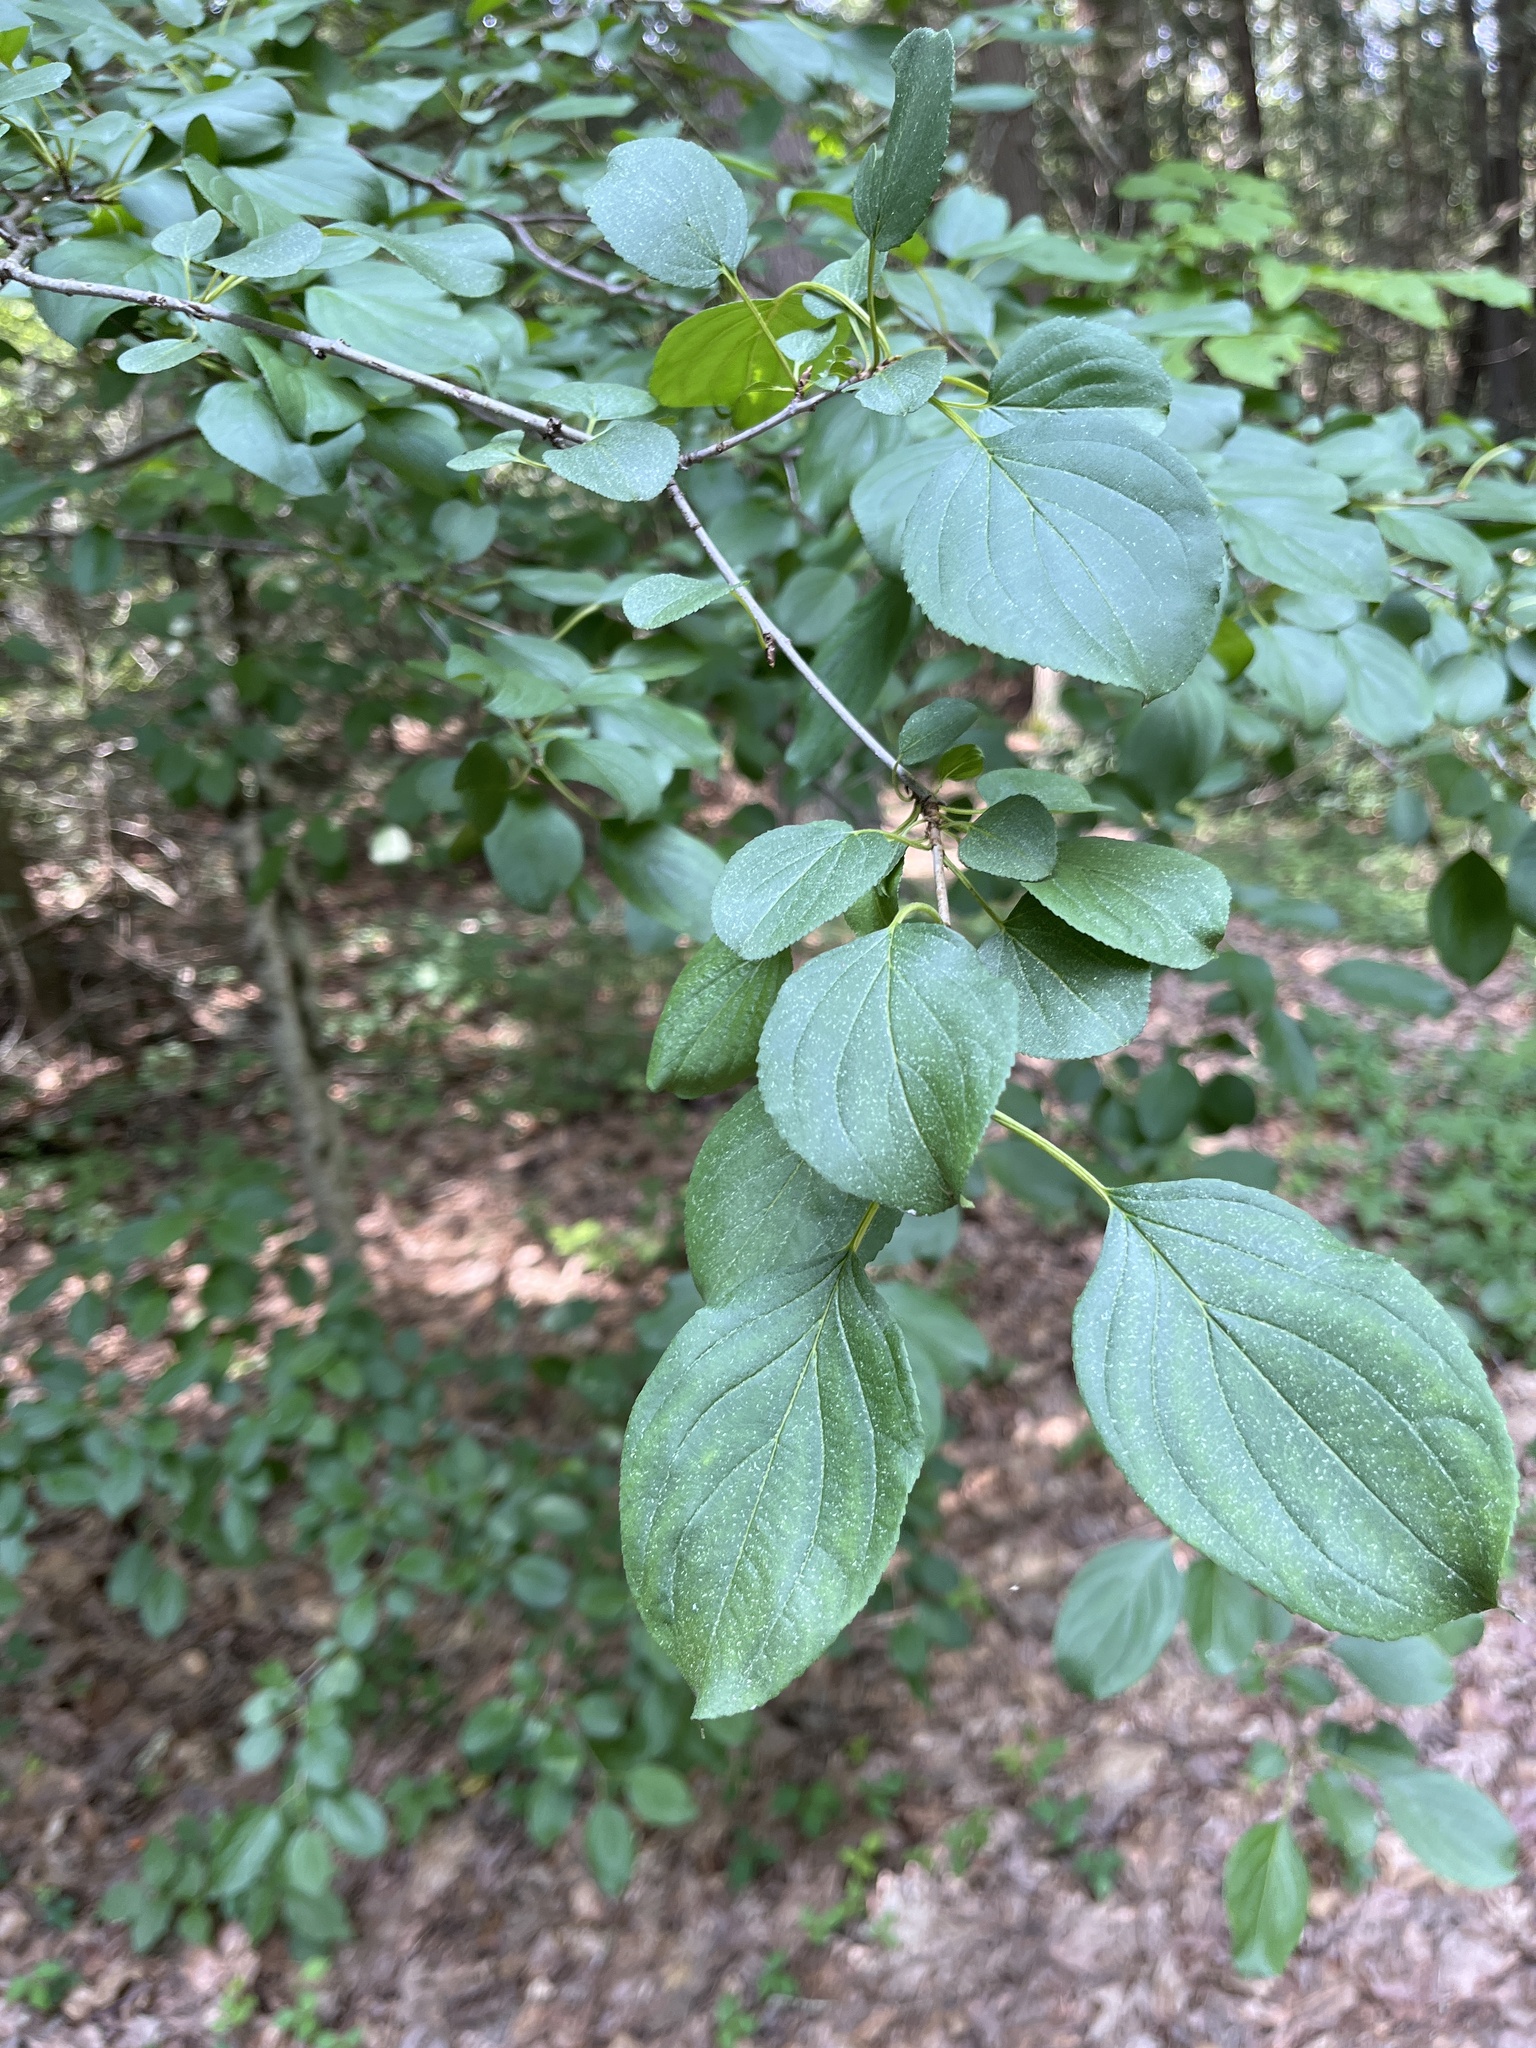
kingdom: Plantae
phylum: Tracheophyta
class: Magnoliopsida
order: Rosales
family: Rhamnaceae
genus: Rhamnus
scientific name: Rhamnus cathartica
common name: Common buckthorn
